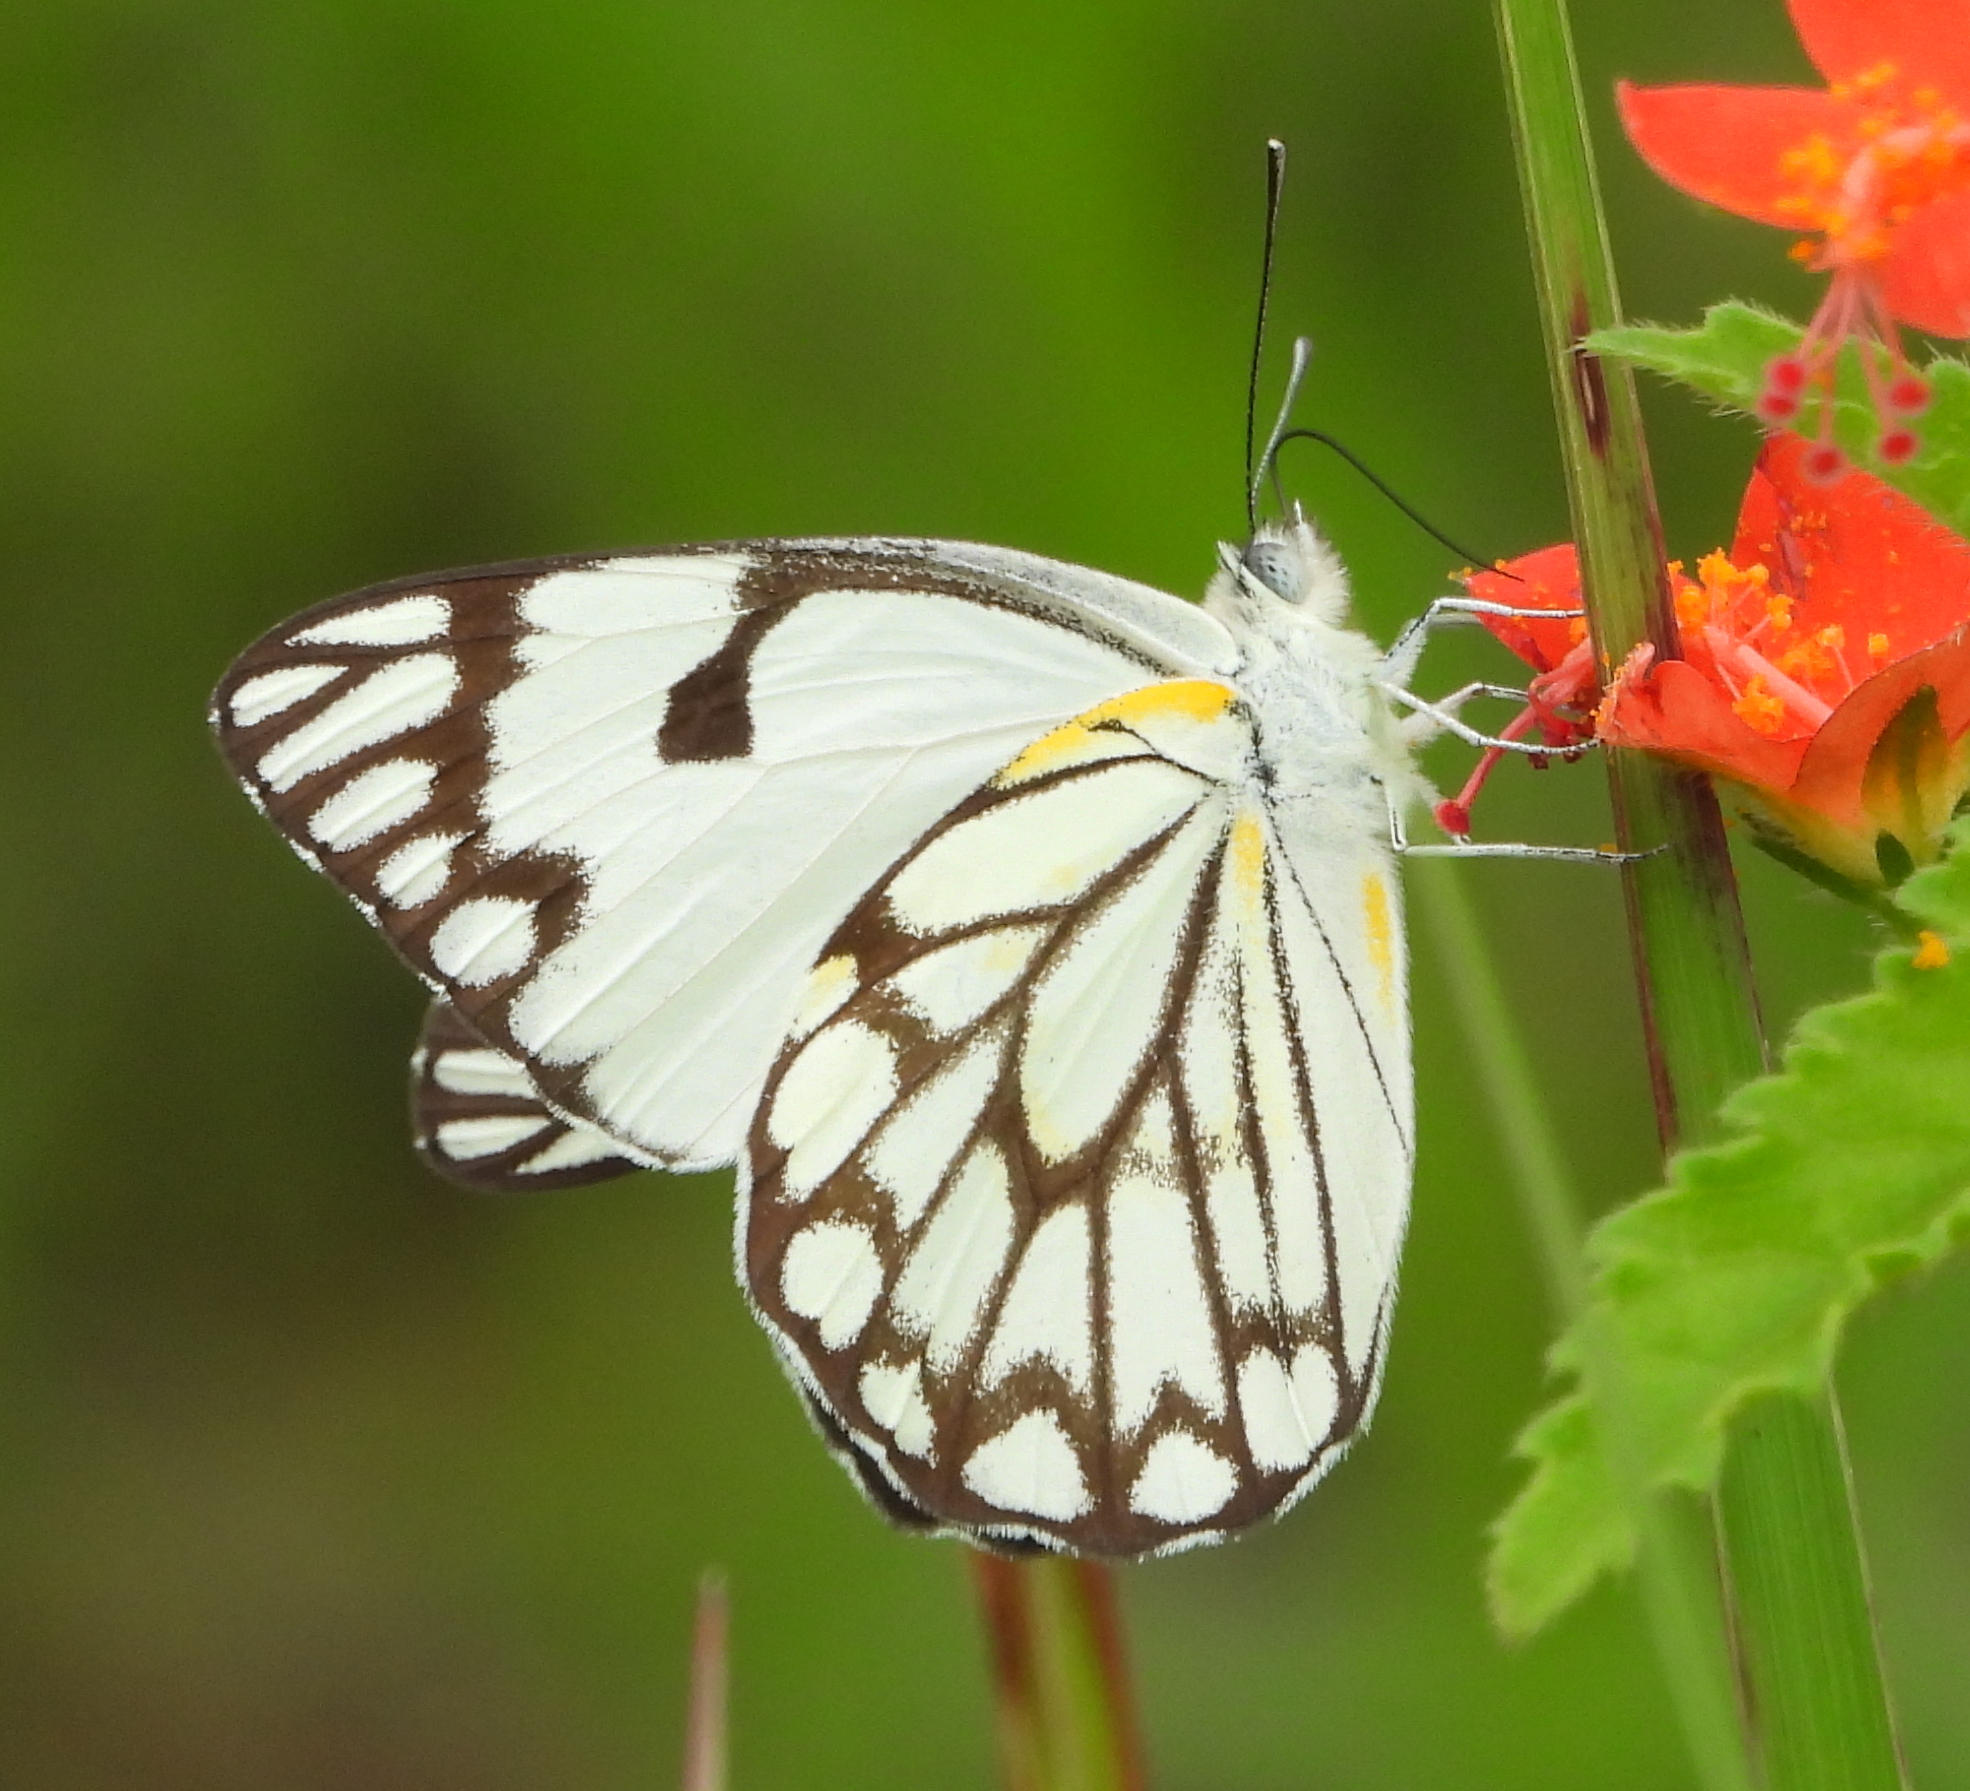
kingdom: Animalia
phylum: Arthropoda
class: Insecta
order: Lepidoptera
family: Pieridae
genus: Belenois
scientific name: Belenois aurota
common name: Brown-veined white
